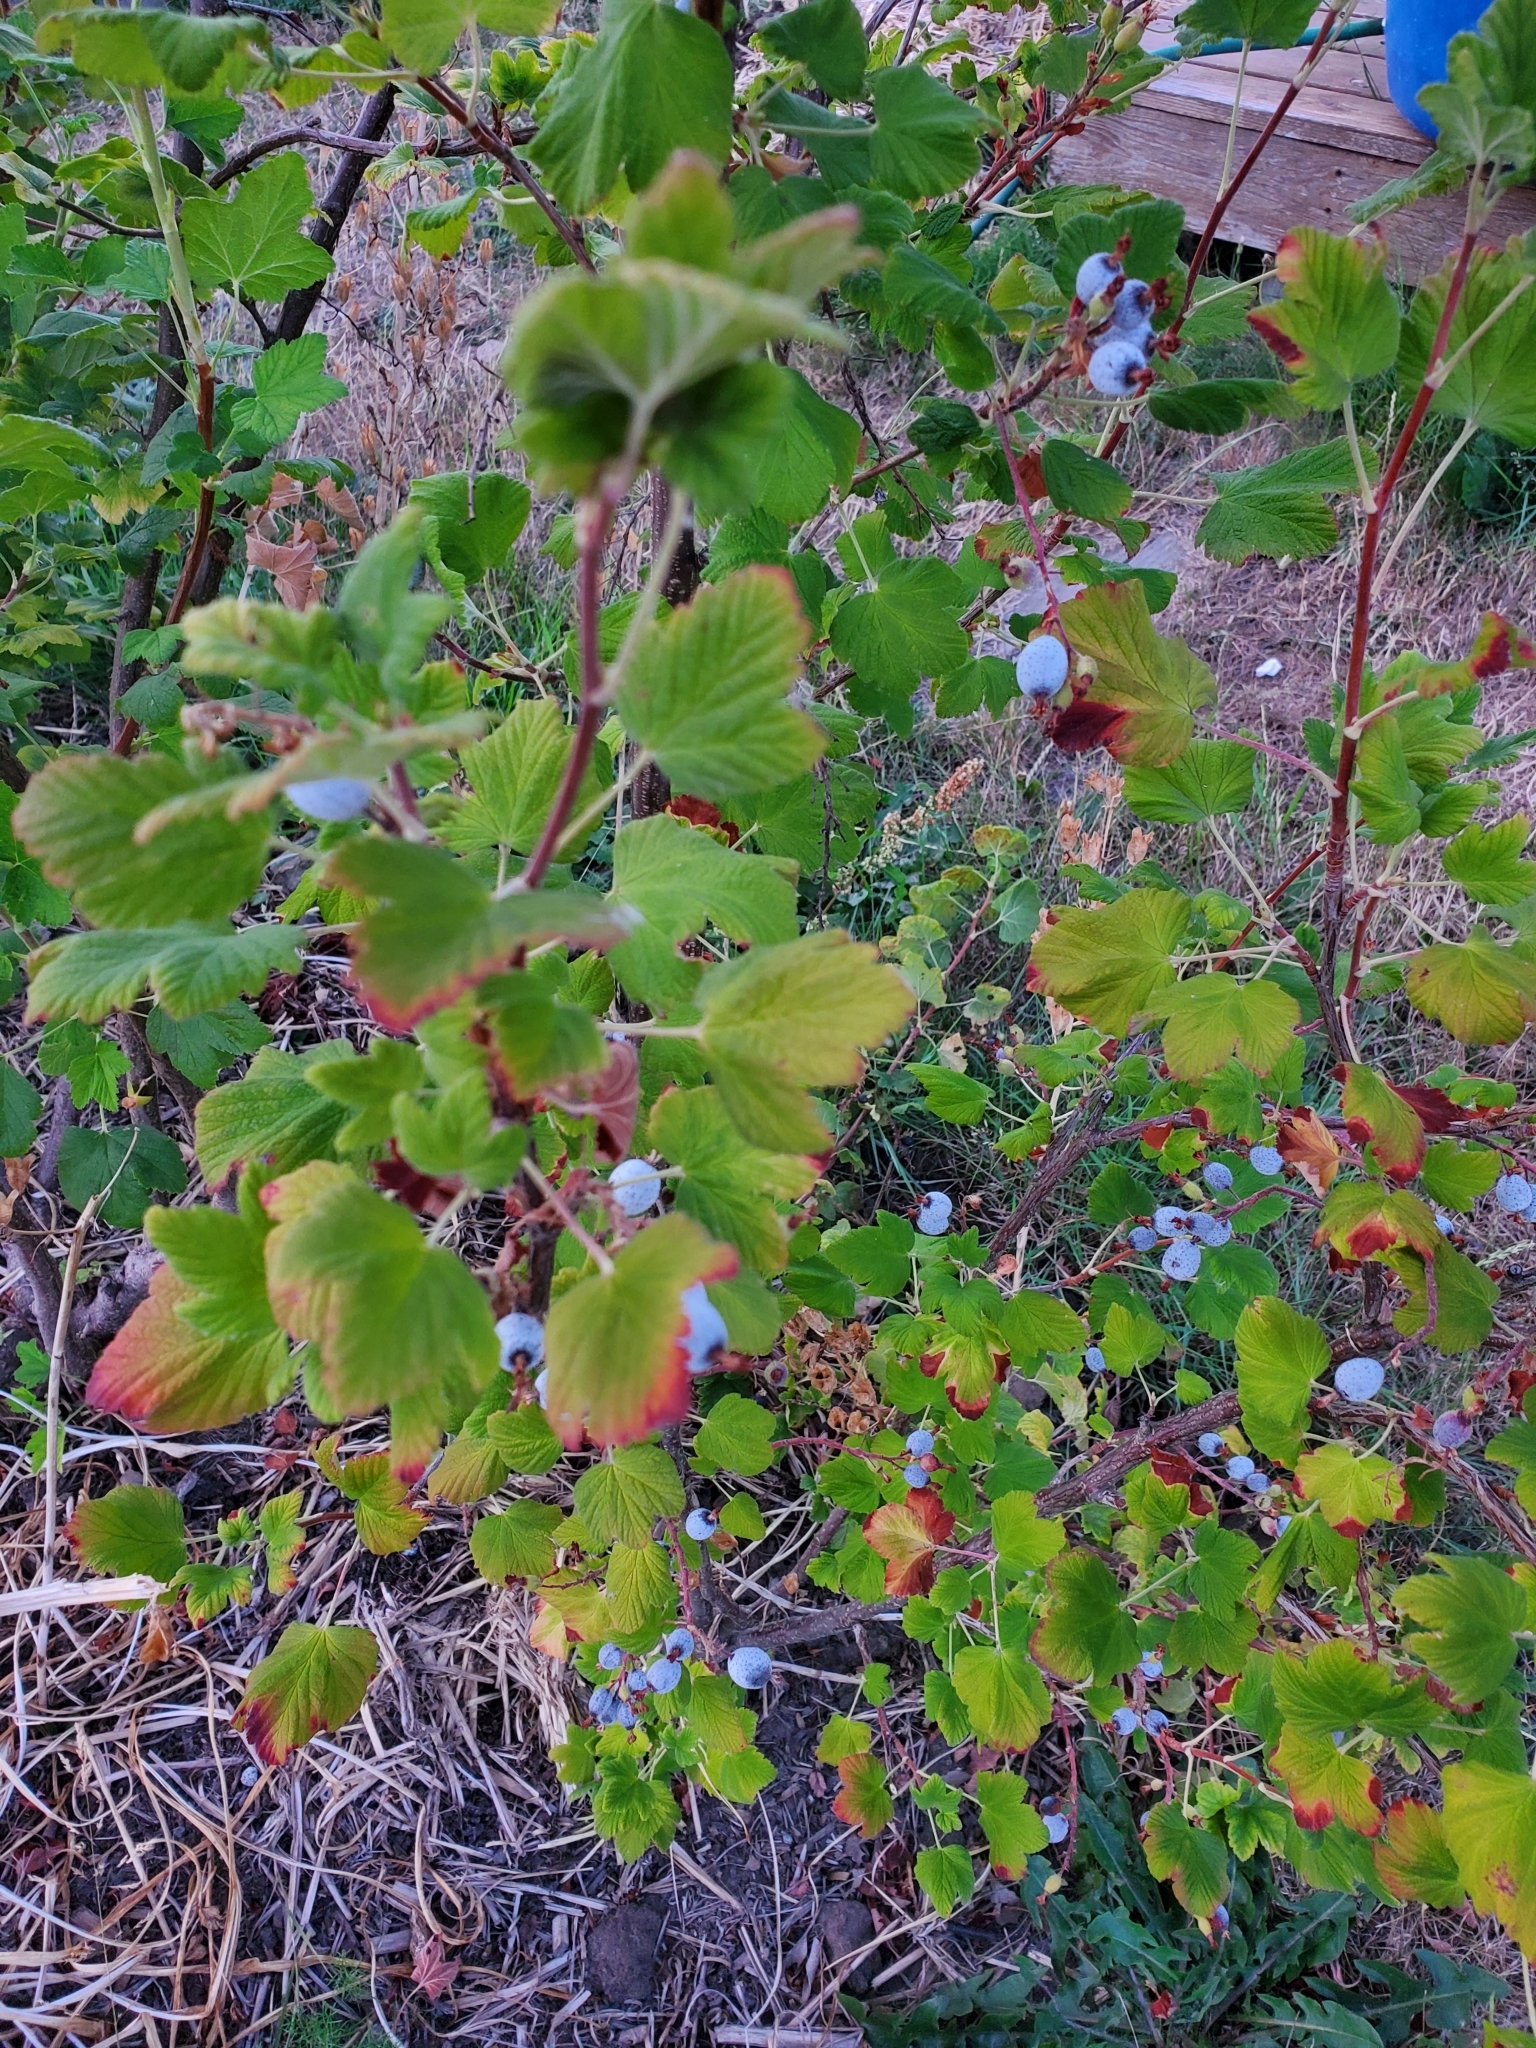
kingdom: Plantae
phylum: Tracheophyta
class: Magnoliopsida
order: Saxifragales
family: Grossulariaceae
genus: Ribes
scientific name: Ribes sanguineum
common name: Flowering currant
